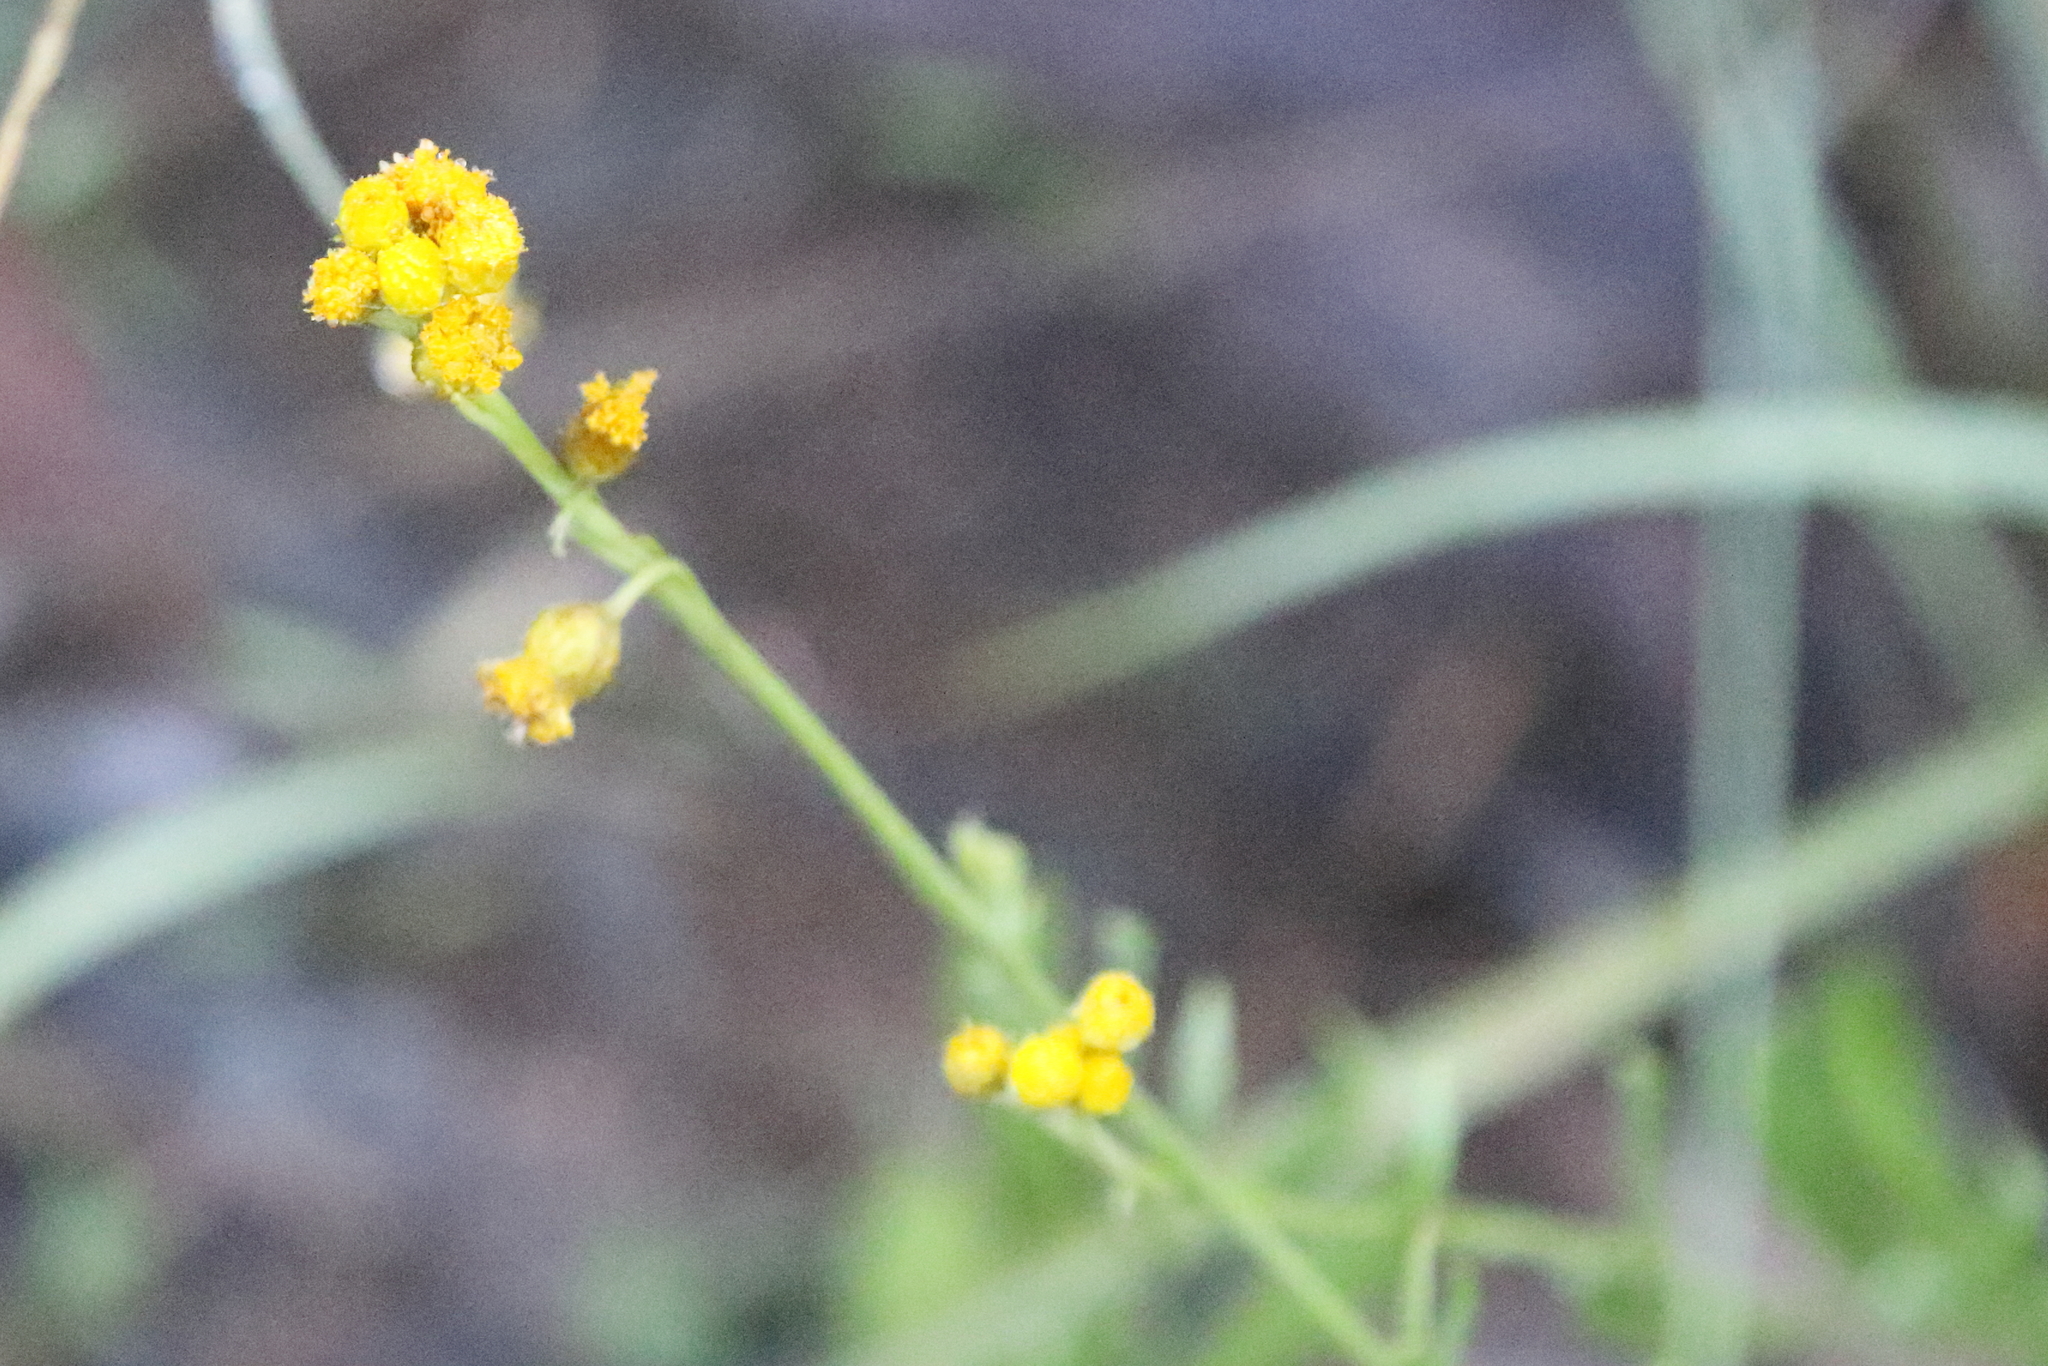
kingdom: Plantae
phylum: Tracheophyta
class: Magnoliopsida
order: Asterales
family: Asteraceae
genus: Chrysocephalum
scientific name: Chrysocephalum apiculatum
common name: Common everlasting
